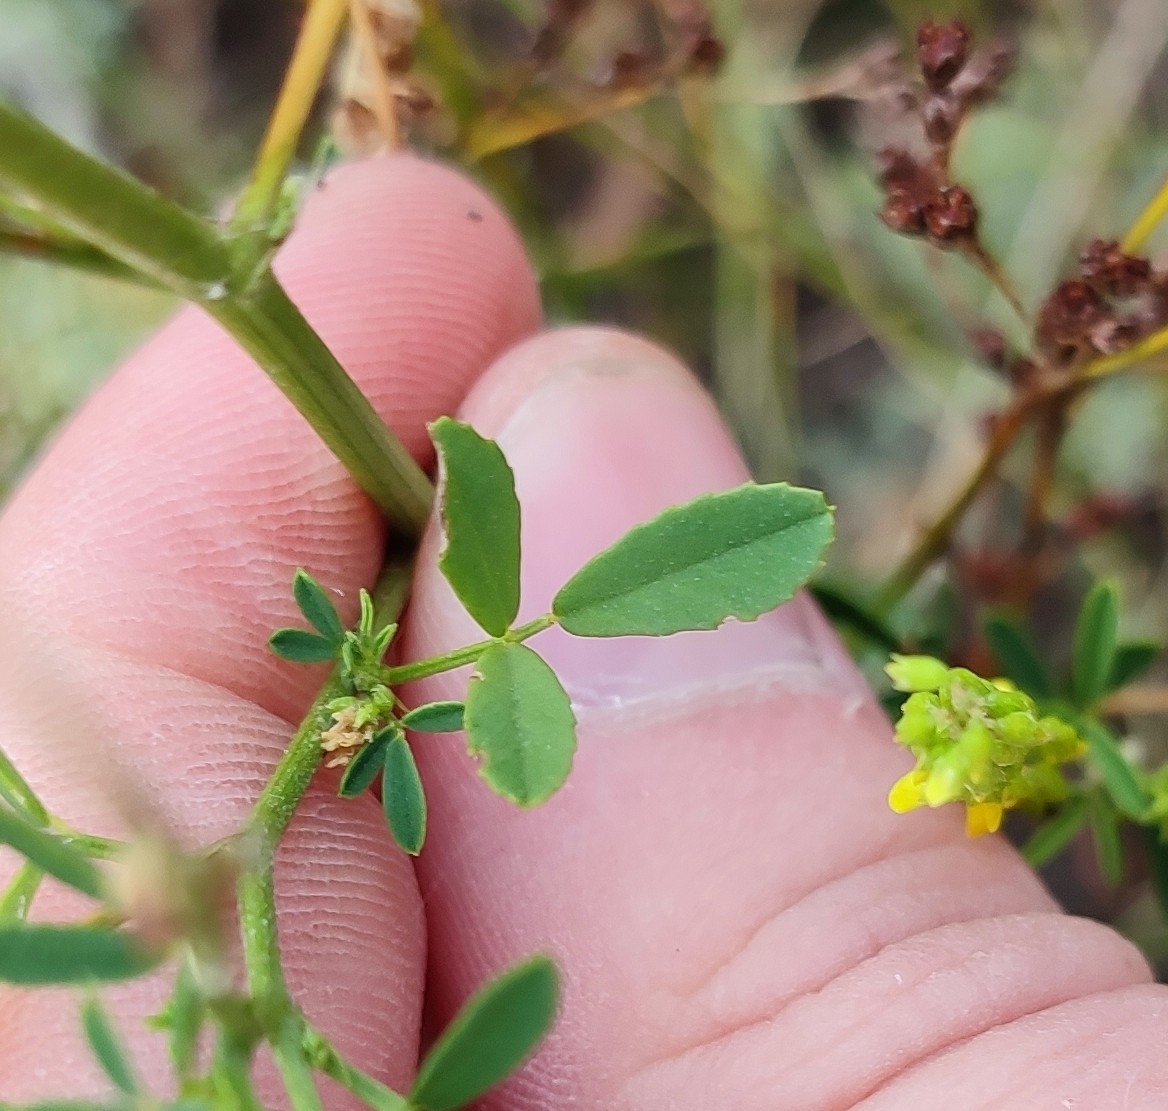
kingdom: Plantae
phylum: Tracheophyta
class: Magnoliopsida
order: Fabales
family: Fabaceae
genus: Melilotus
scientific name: Melilotus officinalis
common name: Sweetclover
